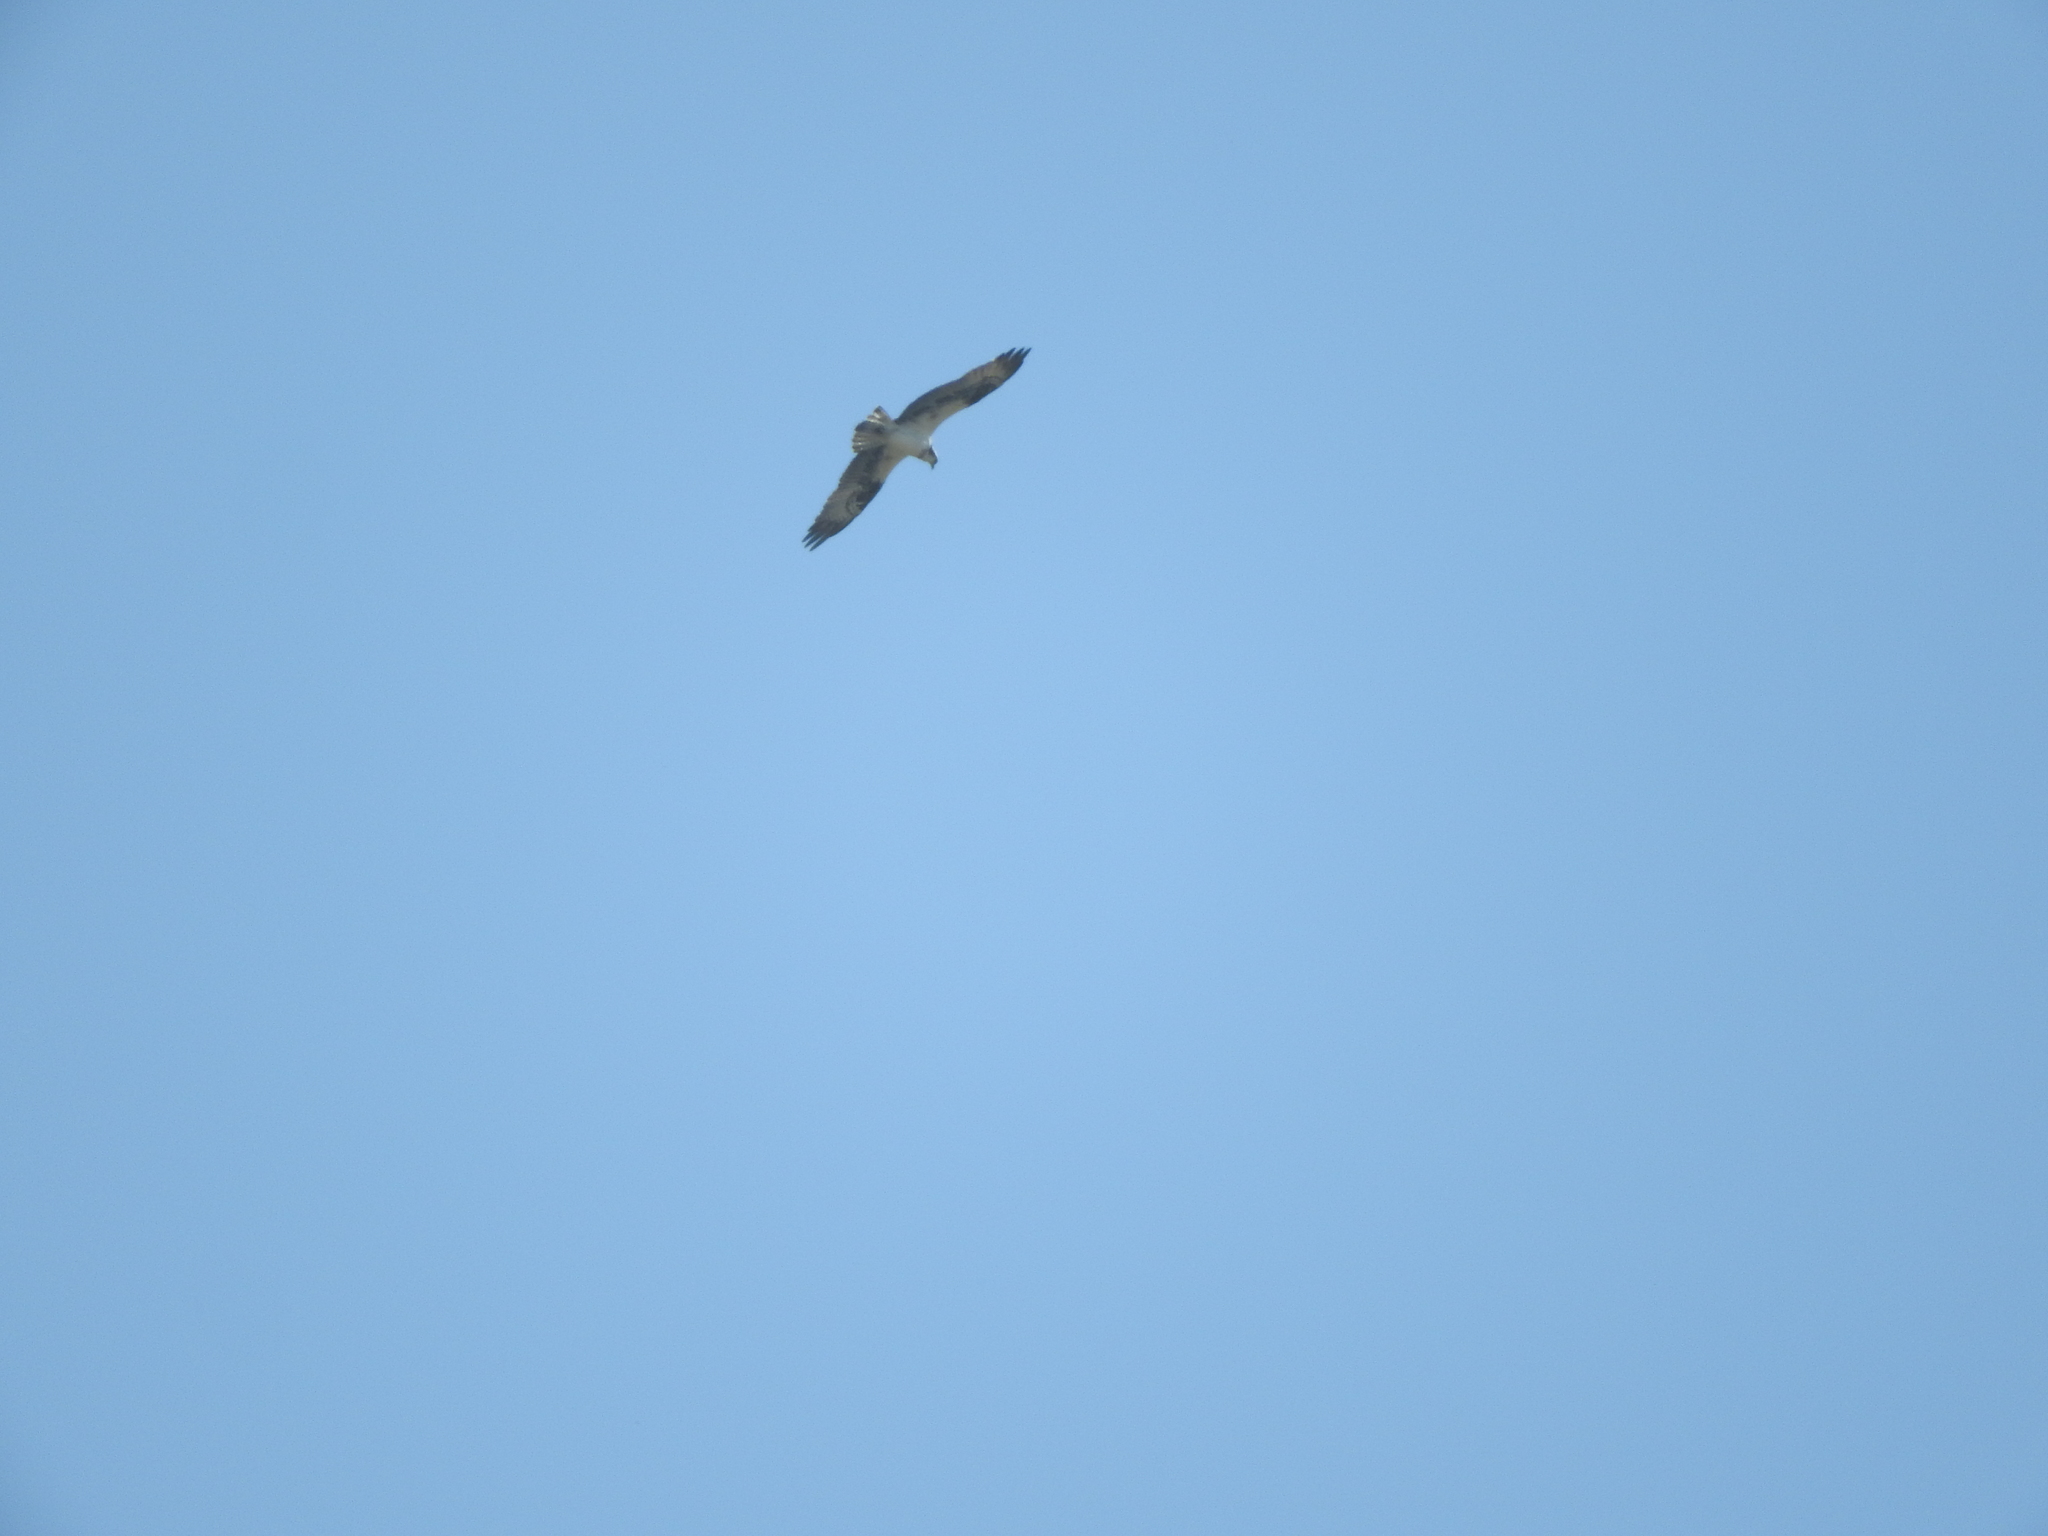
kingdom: Animalia
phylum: Chordata
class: Aves
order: Accipitriformes
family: Pandionidae
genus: Pandion
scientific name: Pandion haliaetus
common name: Osprey
